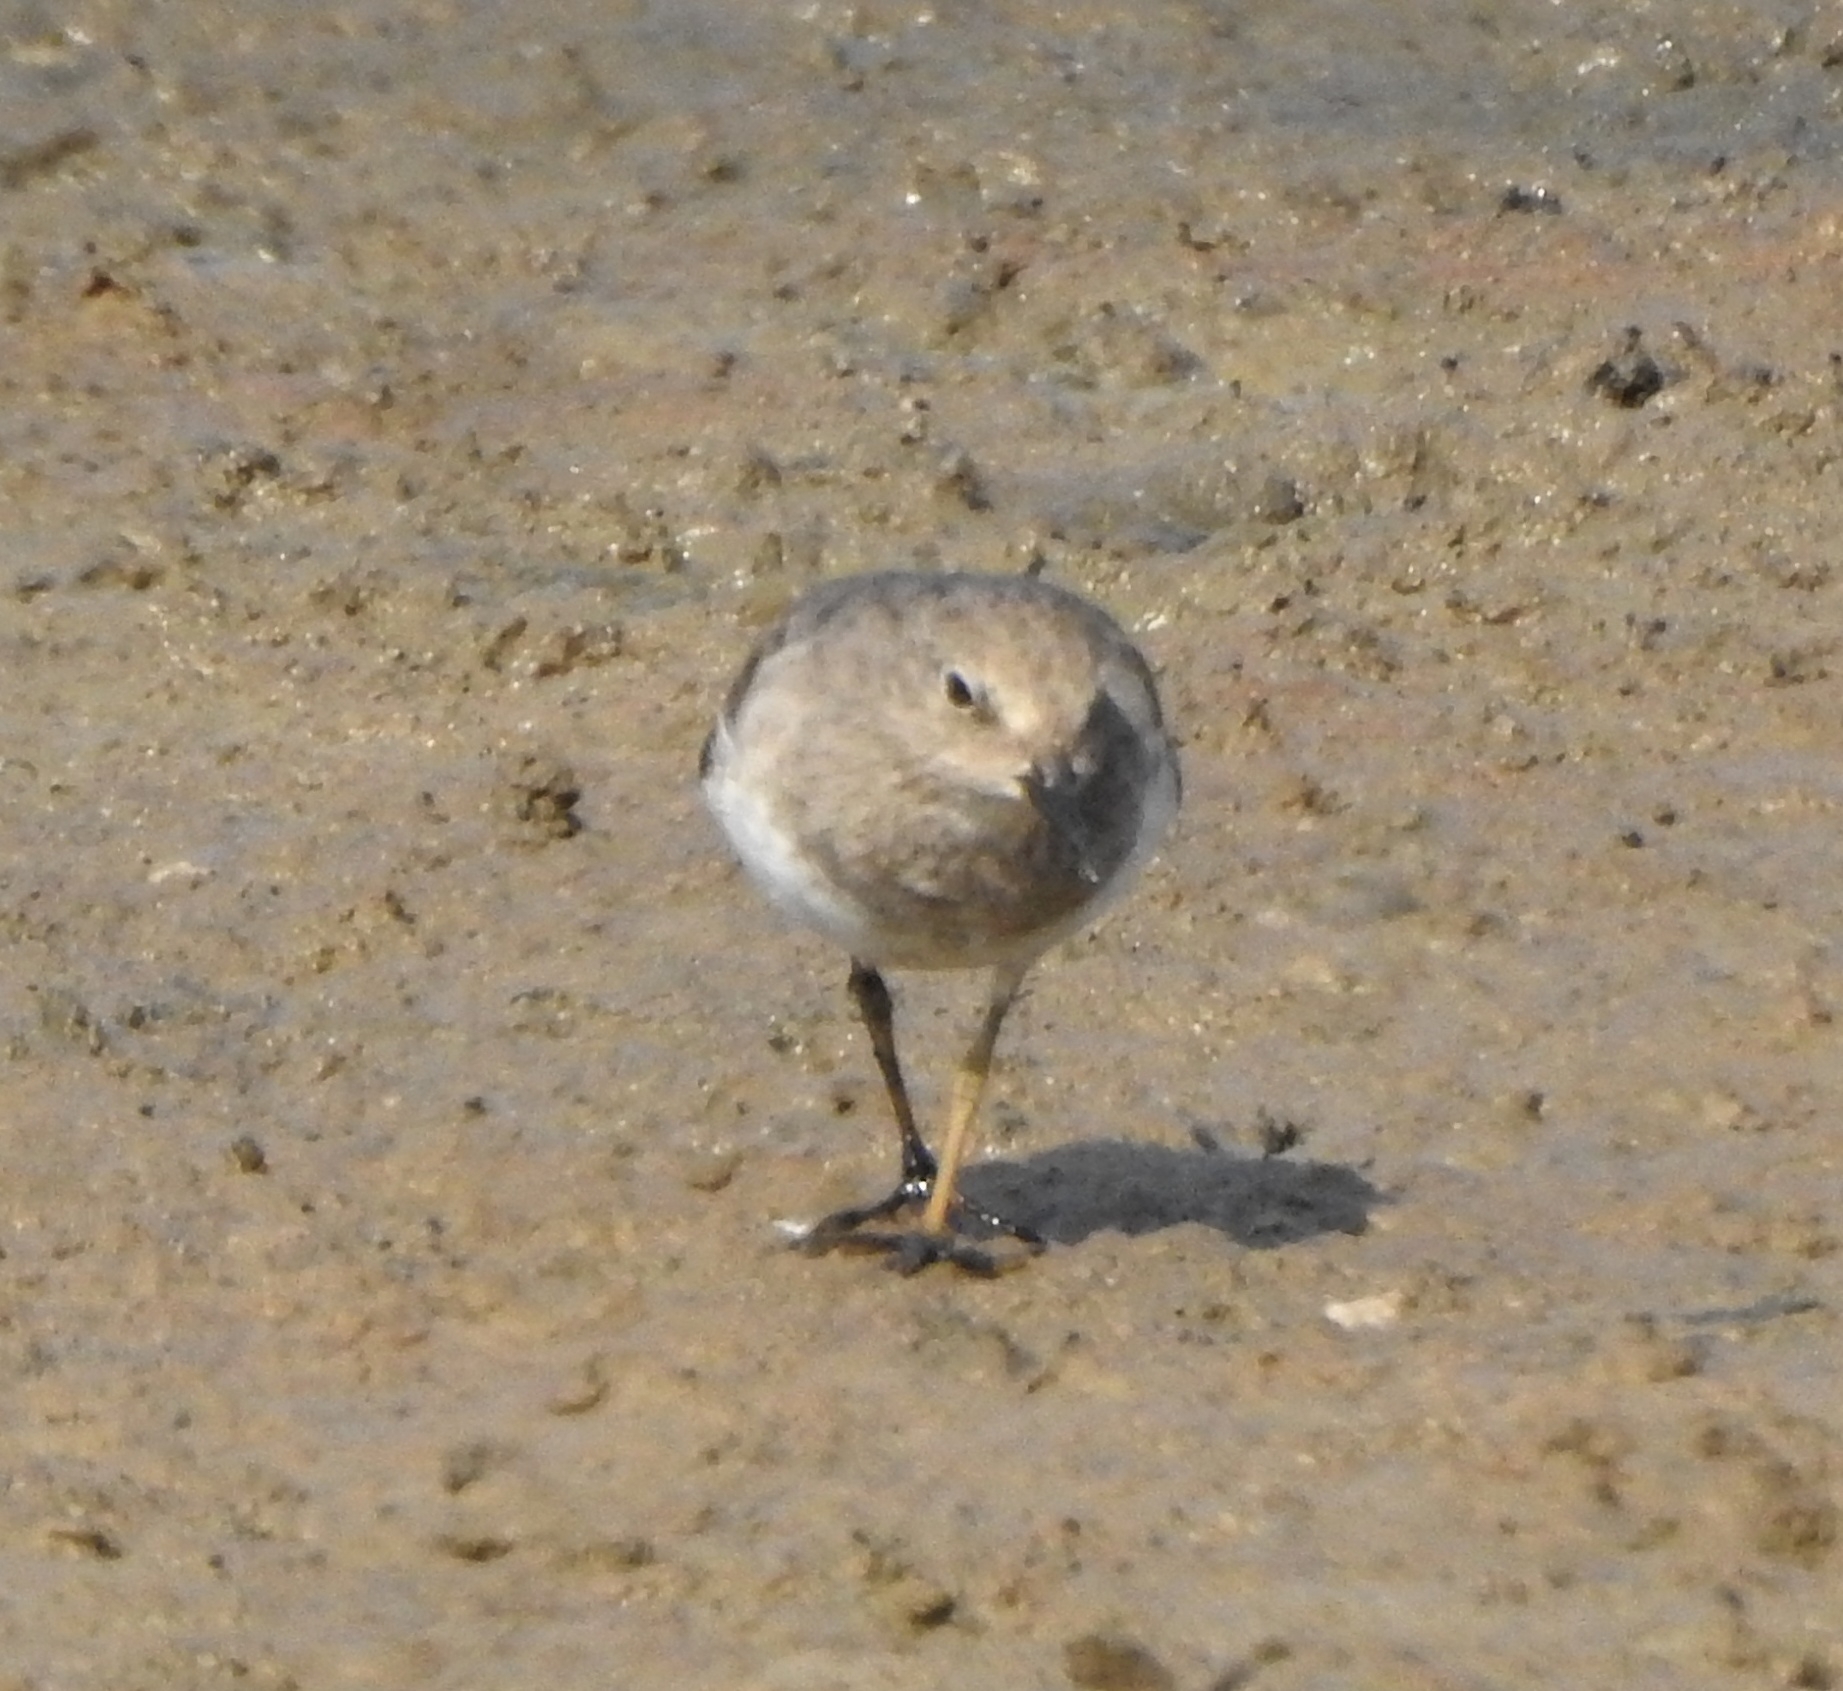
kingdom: Animalia
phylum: Chordata
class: Aves
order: Charadriiformes
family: Scolopacidae
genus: Calidris
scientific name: Calidris temminckii
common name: Temminck's stint
